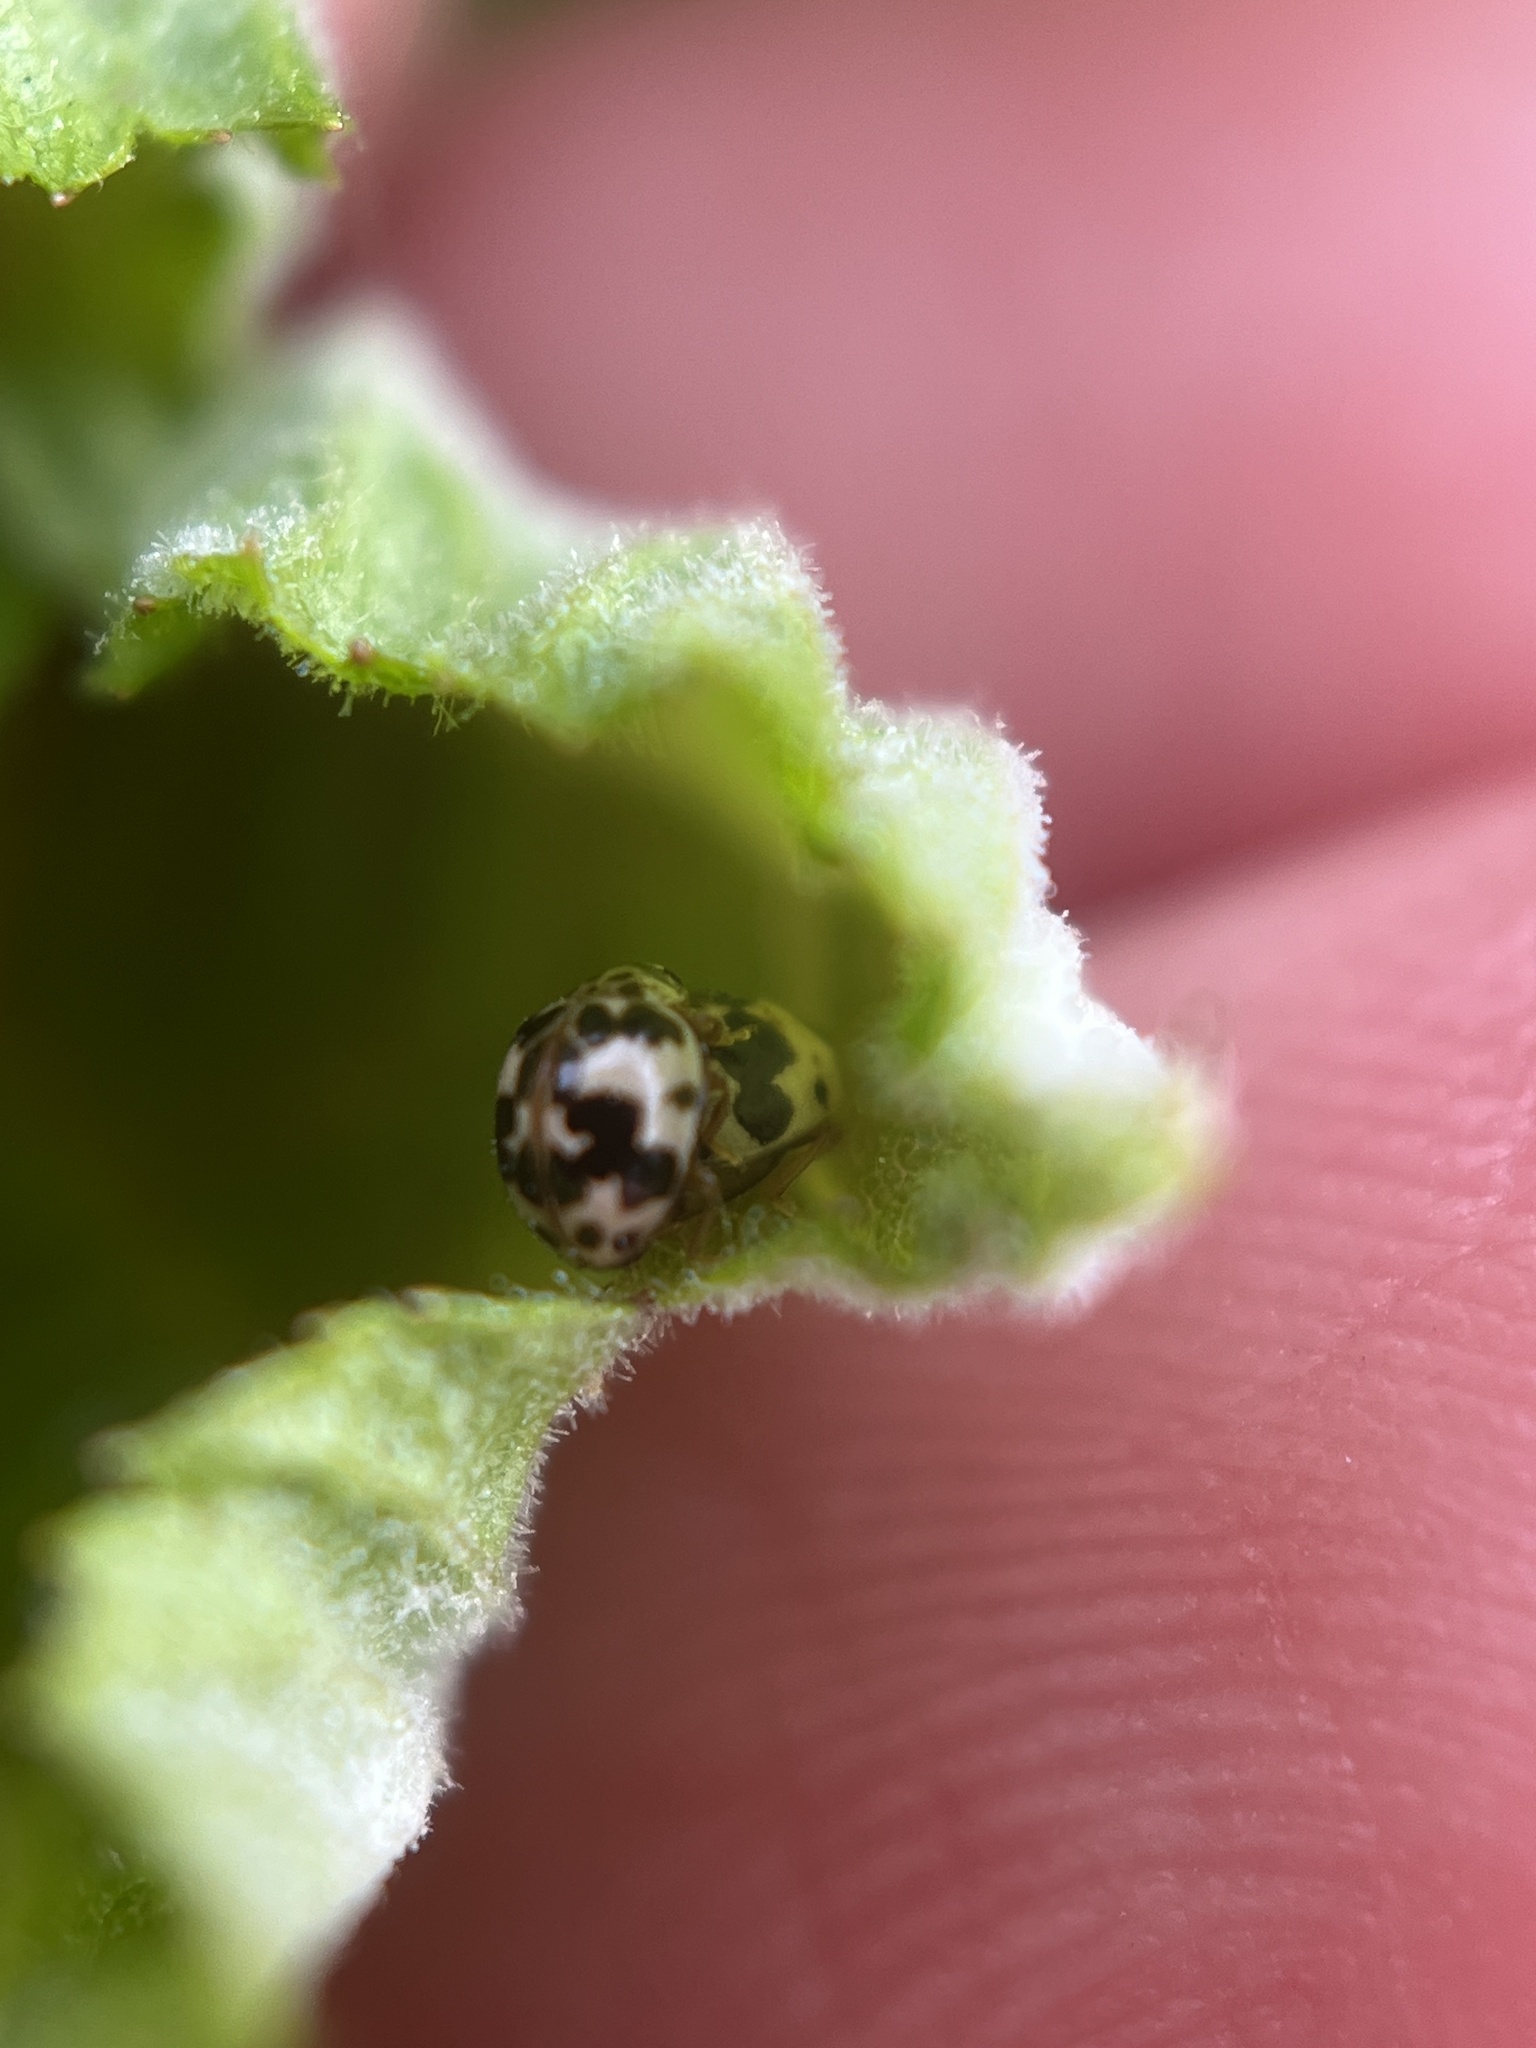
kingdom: Animalia
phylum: Arthropoda
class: Insecta
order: Coleoptera
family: Coccinellidae
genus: Psyllobora
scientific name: Psyllobora borealis
